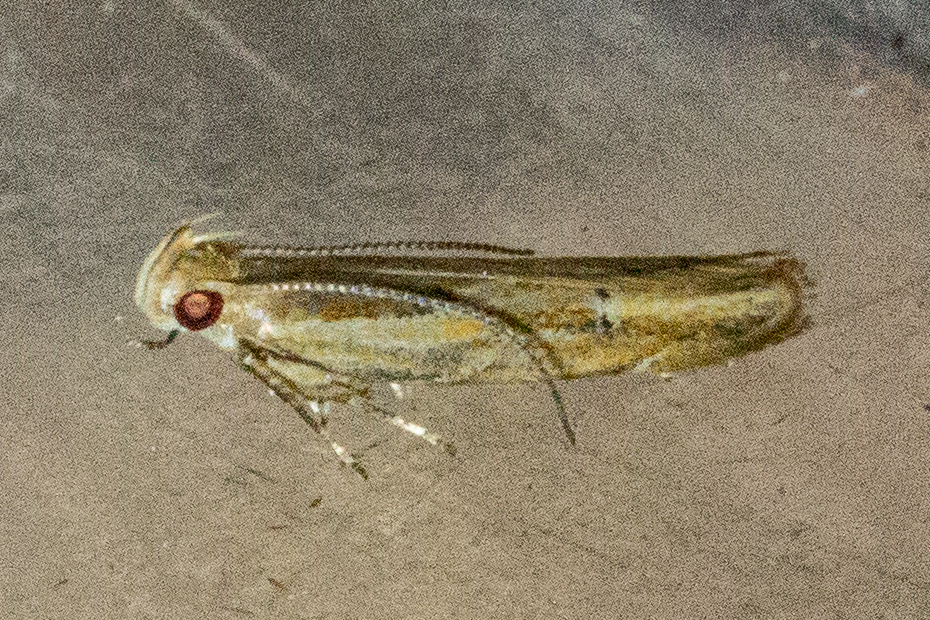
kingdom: Animalia
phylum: Arthropoda
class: Insecta
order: Lepidoptera
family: Depressariidae
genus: Eutorna
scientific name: Eutorna symmorpha
